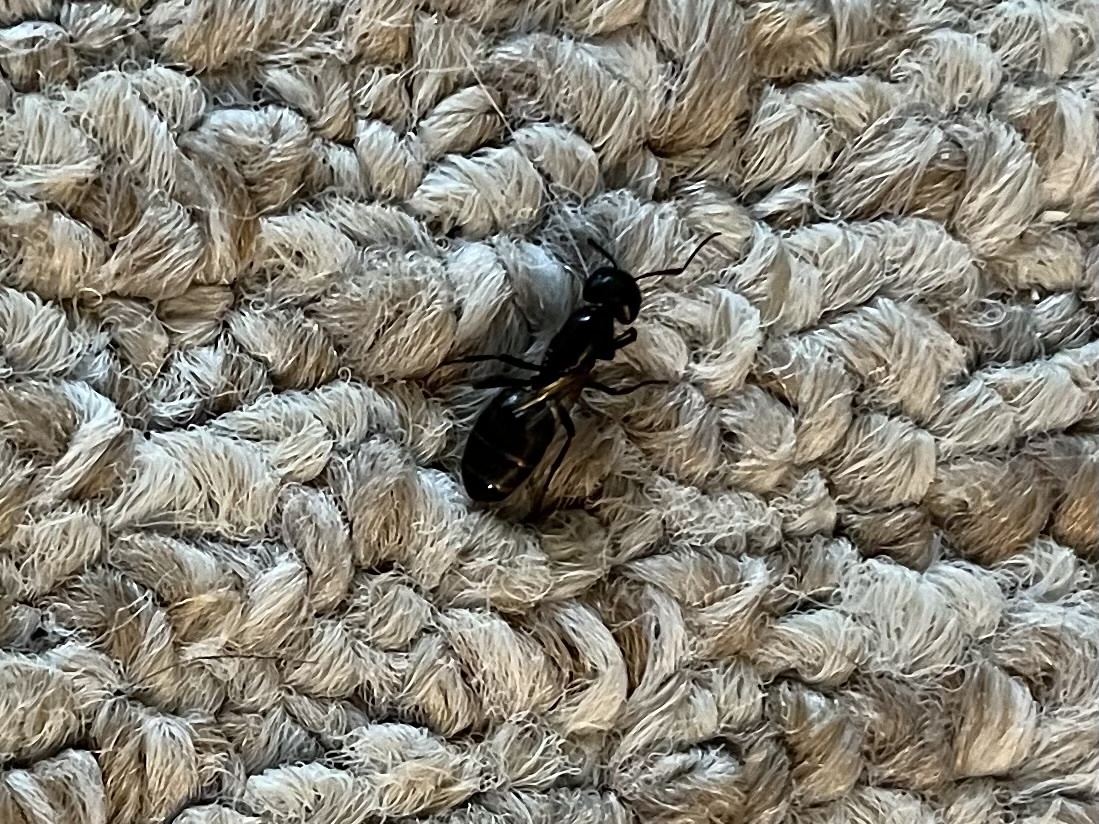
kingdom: Animalia
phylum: Arthropoda
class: Insecta
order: Hymenoptera
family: Formicidae
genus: Camponotus
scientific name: Camponotus pennsylvanicus
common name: Black carpenter ant
